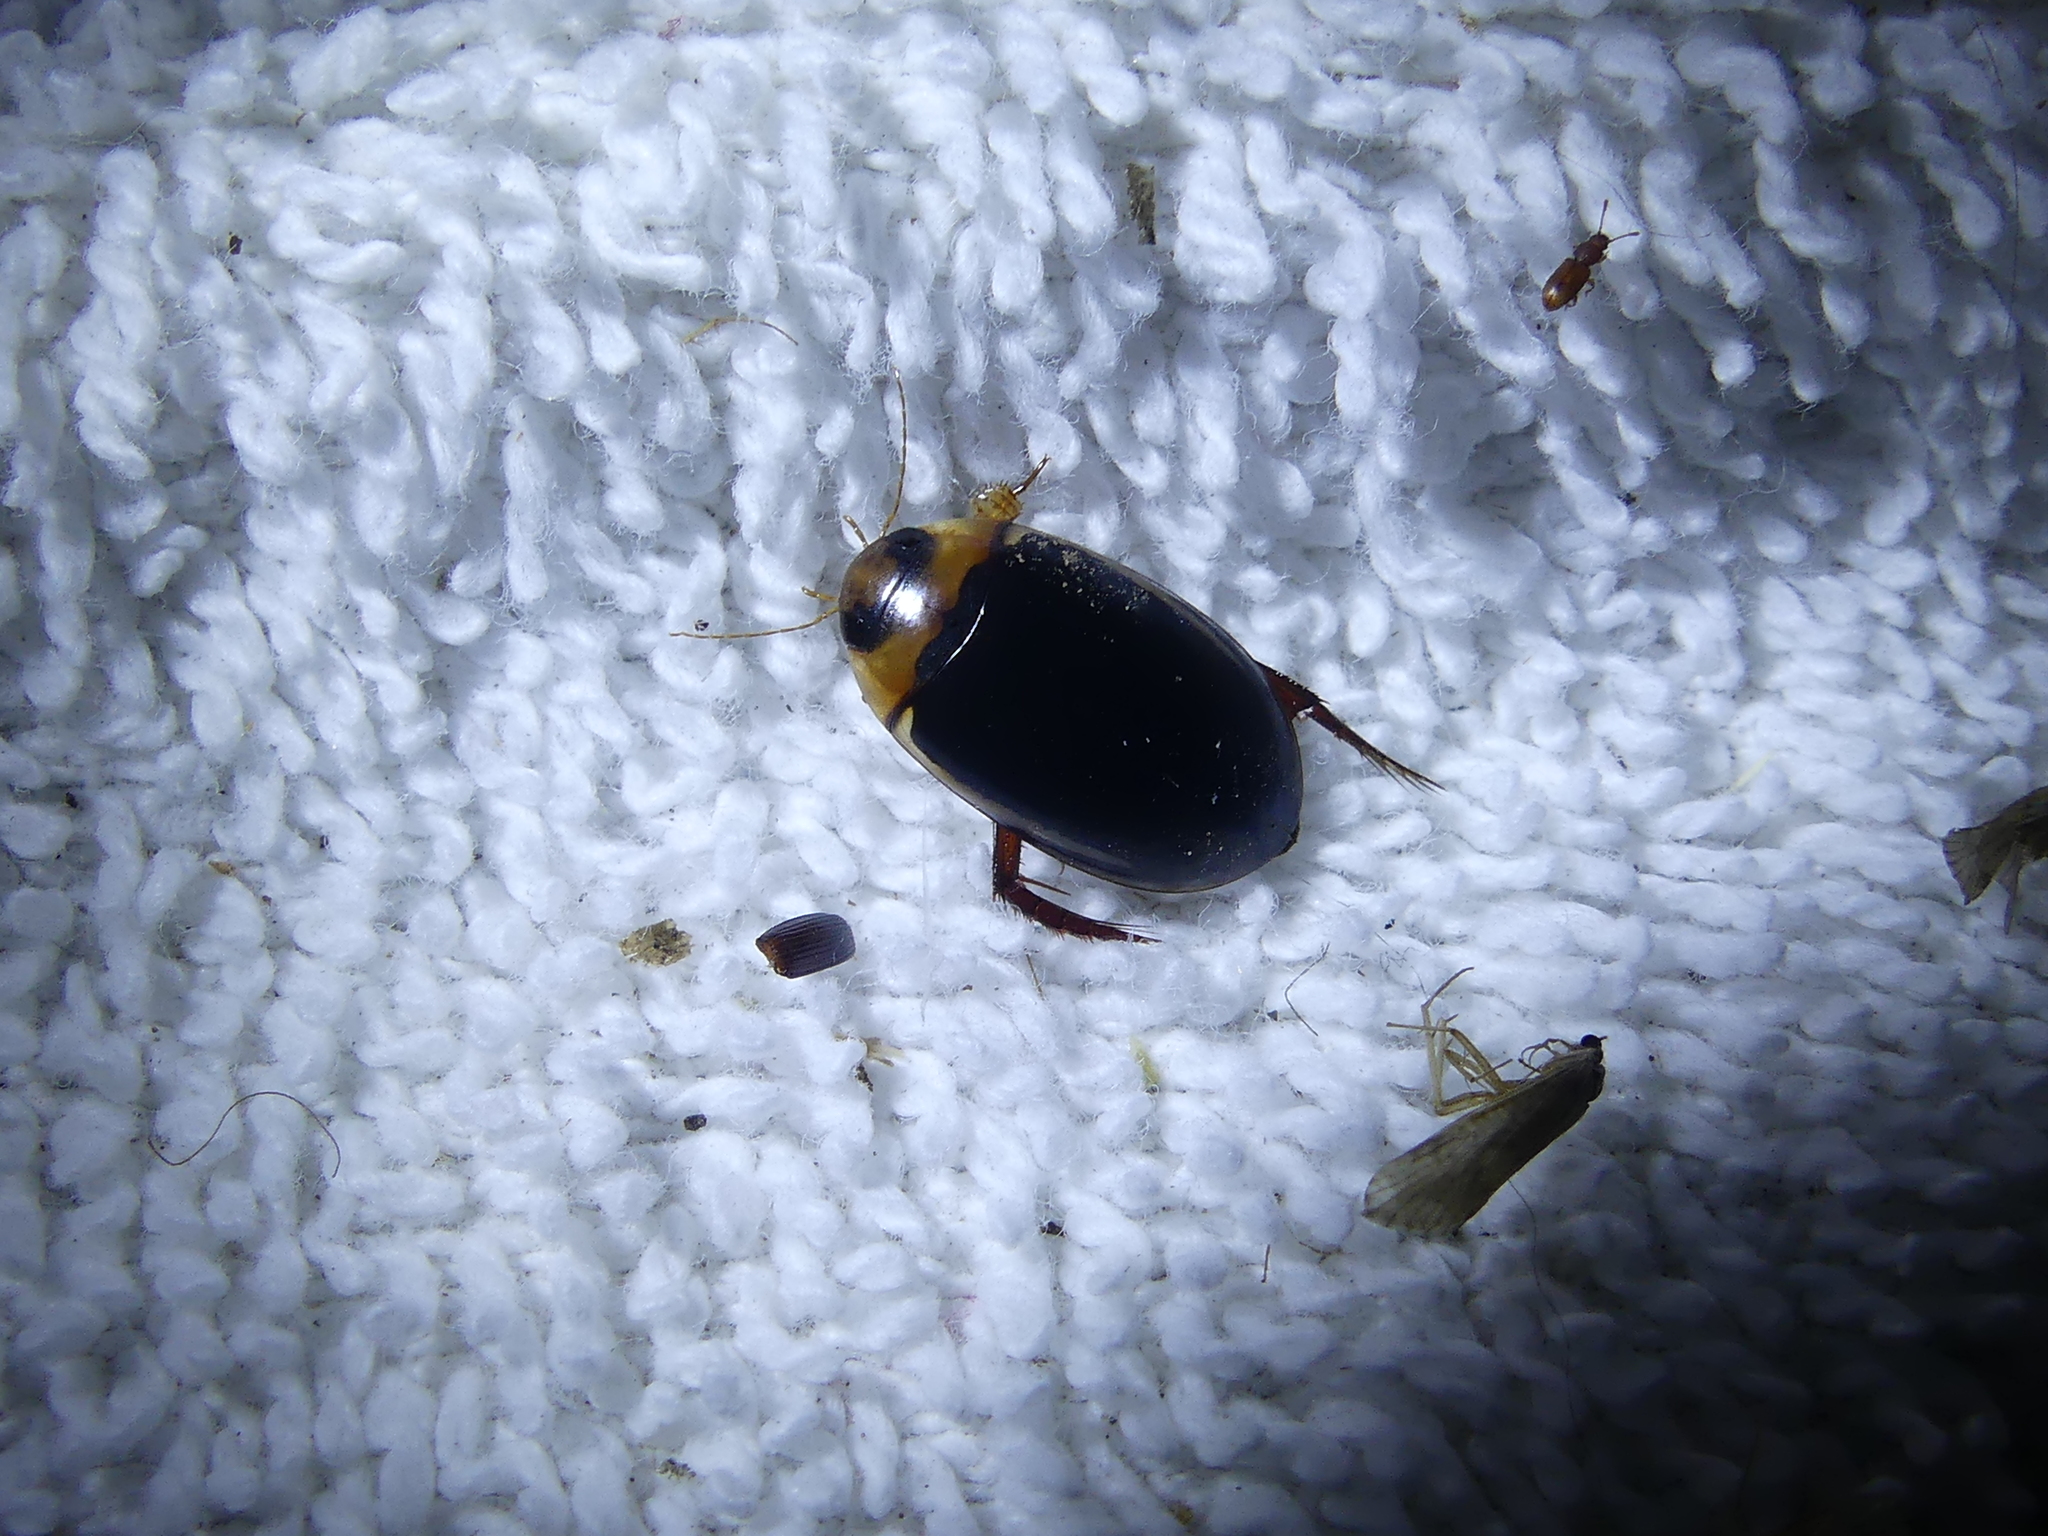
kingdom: Animalia
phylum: Arthropoda
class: Insecta
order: Coleoptera
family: Dytiscidae
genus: Hydaticus
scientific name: Hydaticus bimarginatus
